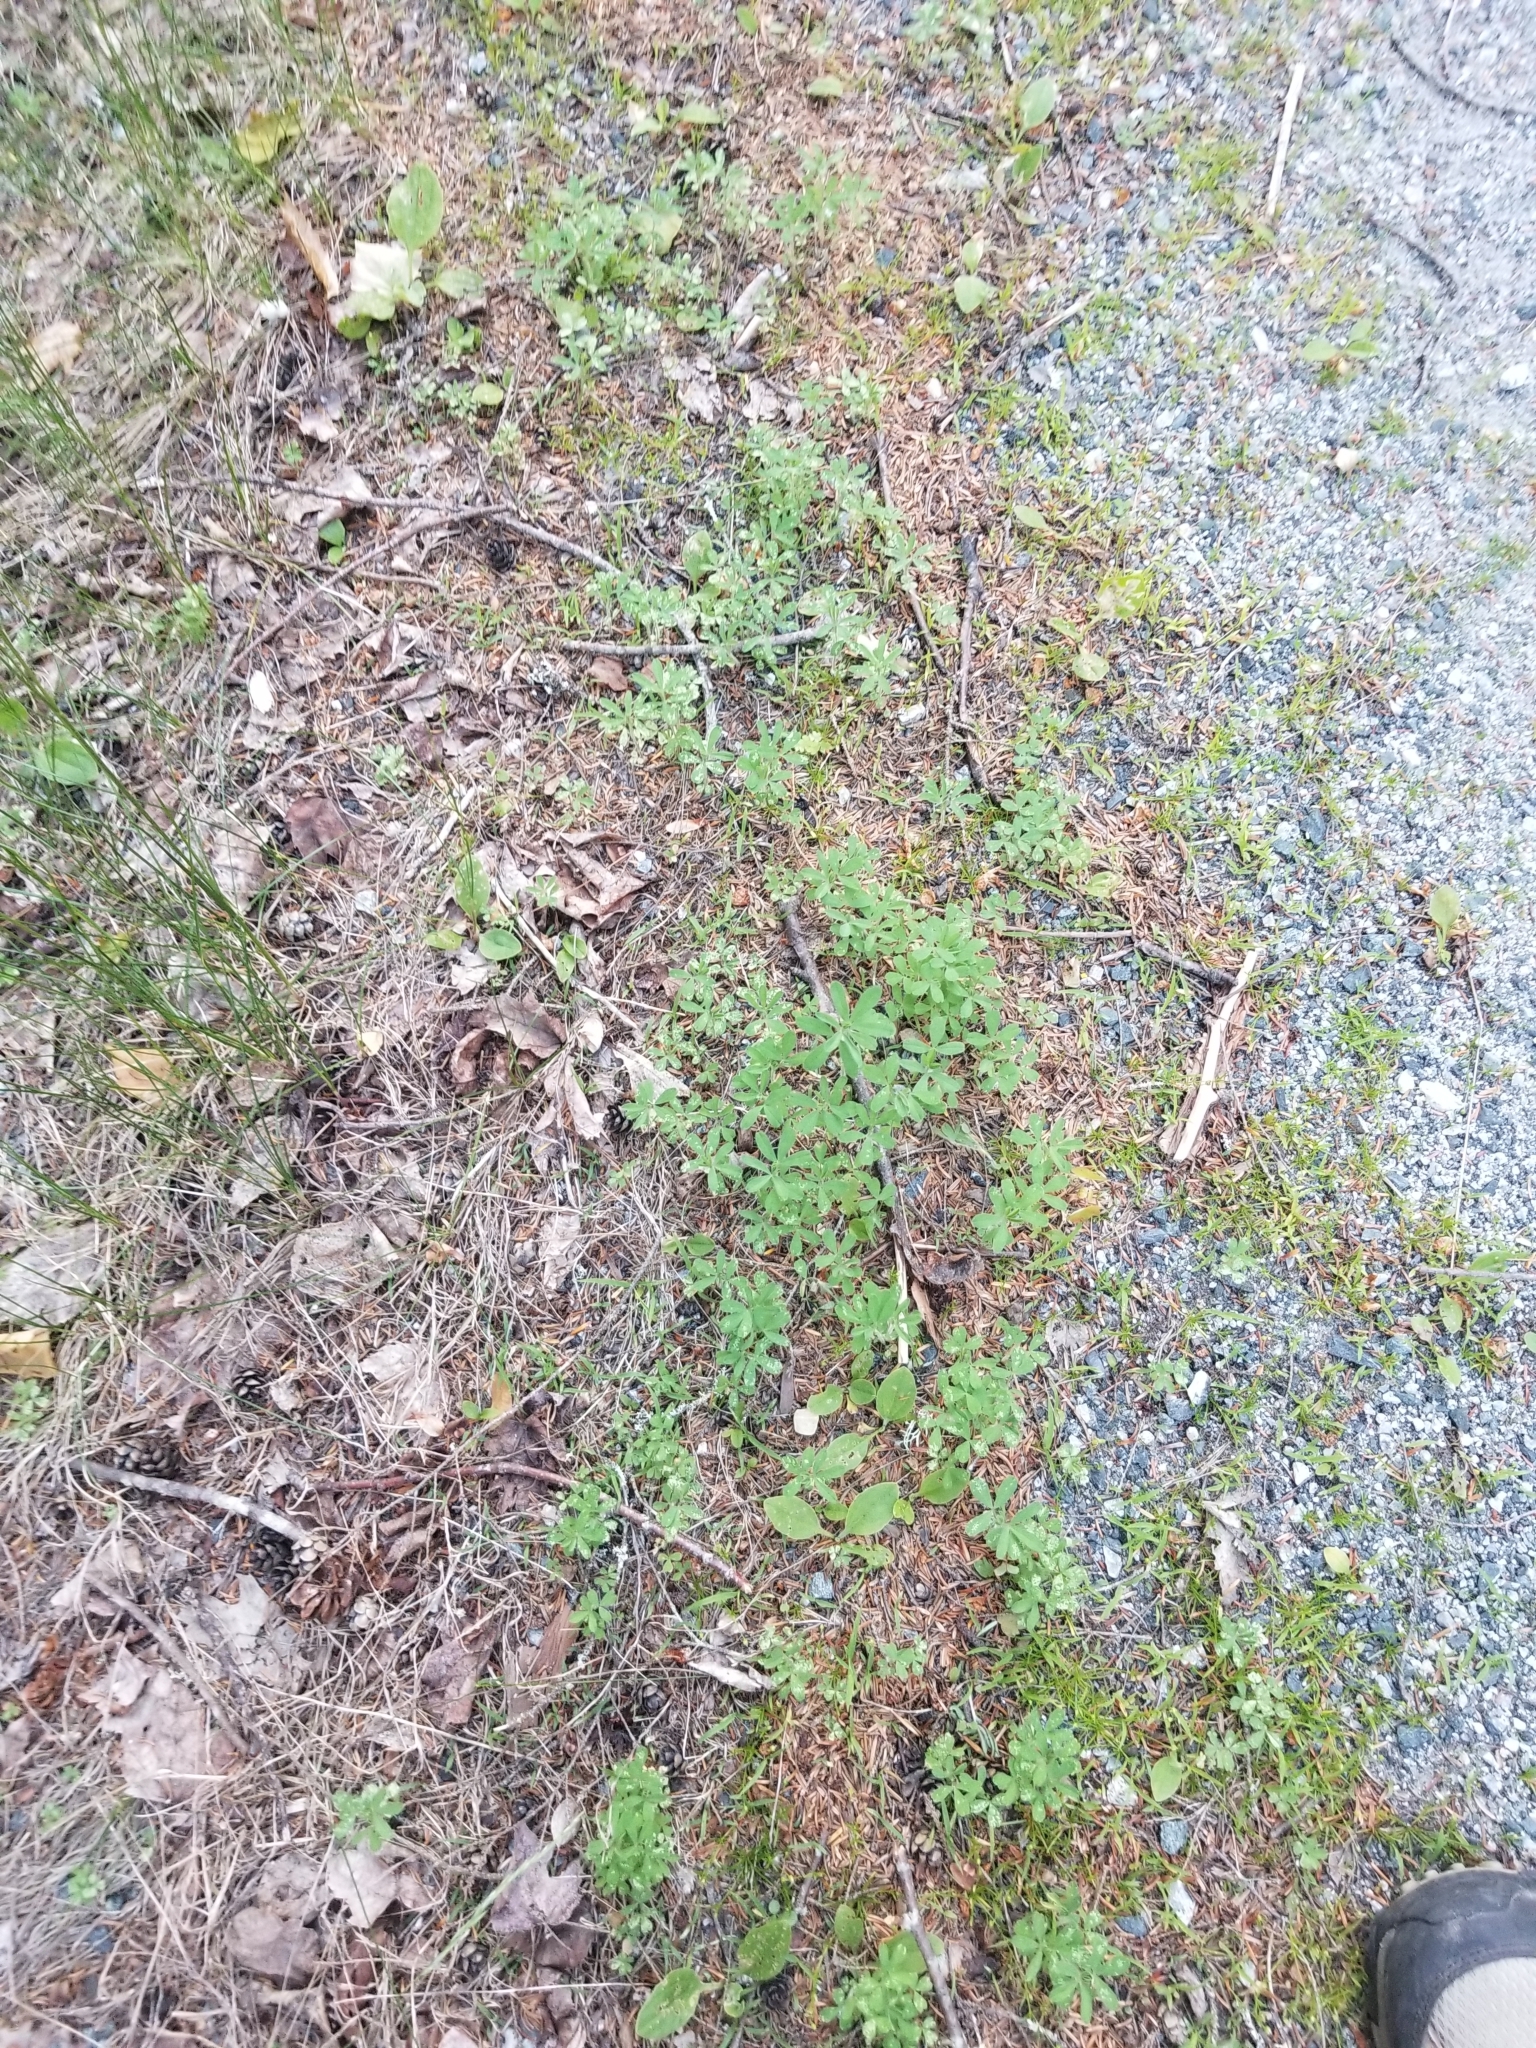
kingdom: Plantae
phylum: Tracheophyta
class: Magnoliopsida
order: Fabales
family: Fabaceae
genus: Trifolium
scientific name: Trifolium arvense
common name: Hare's-foot clover
